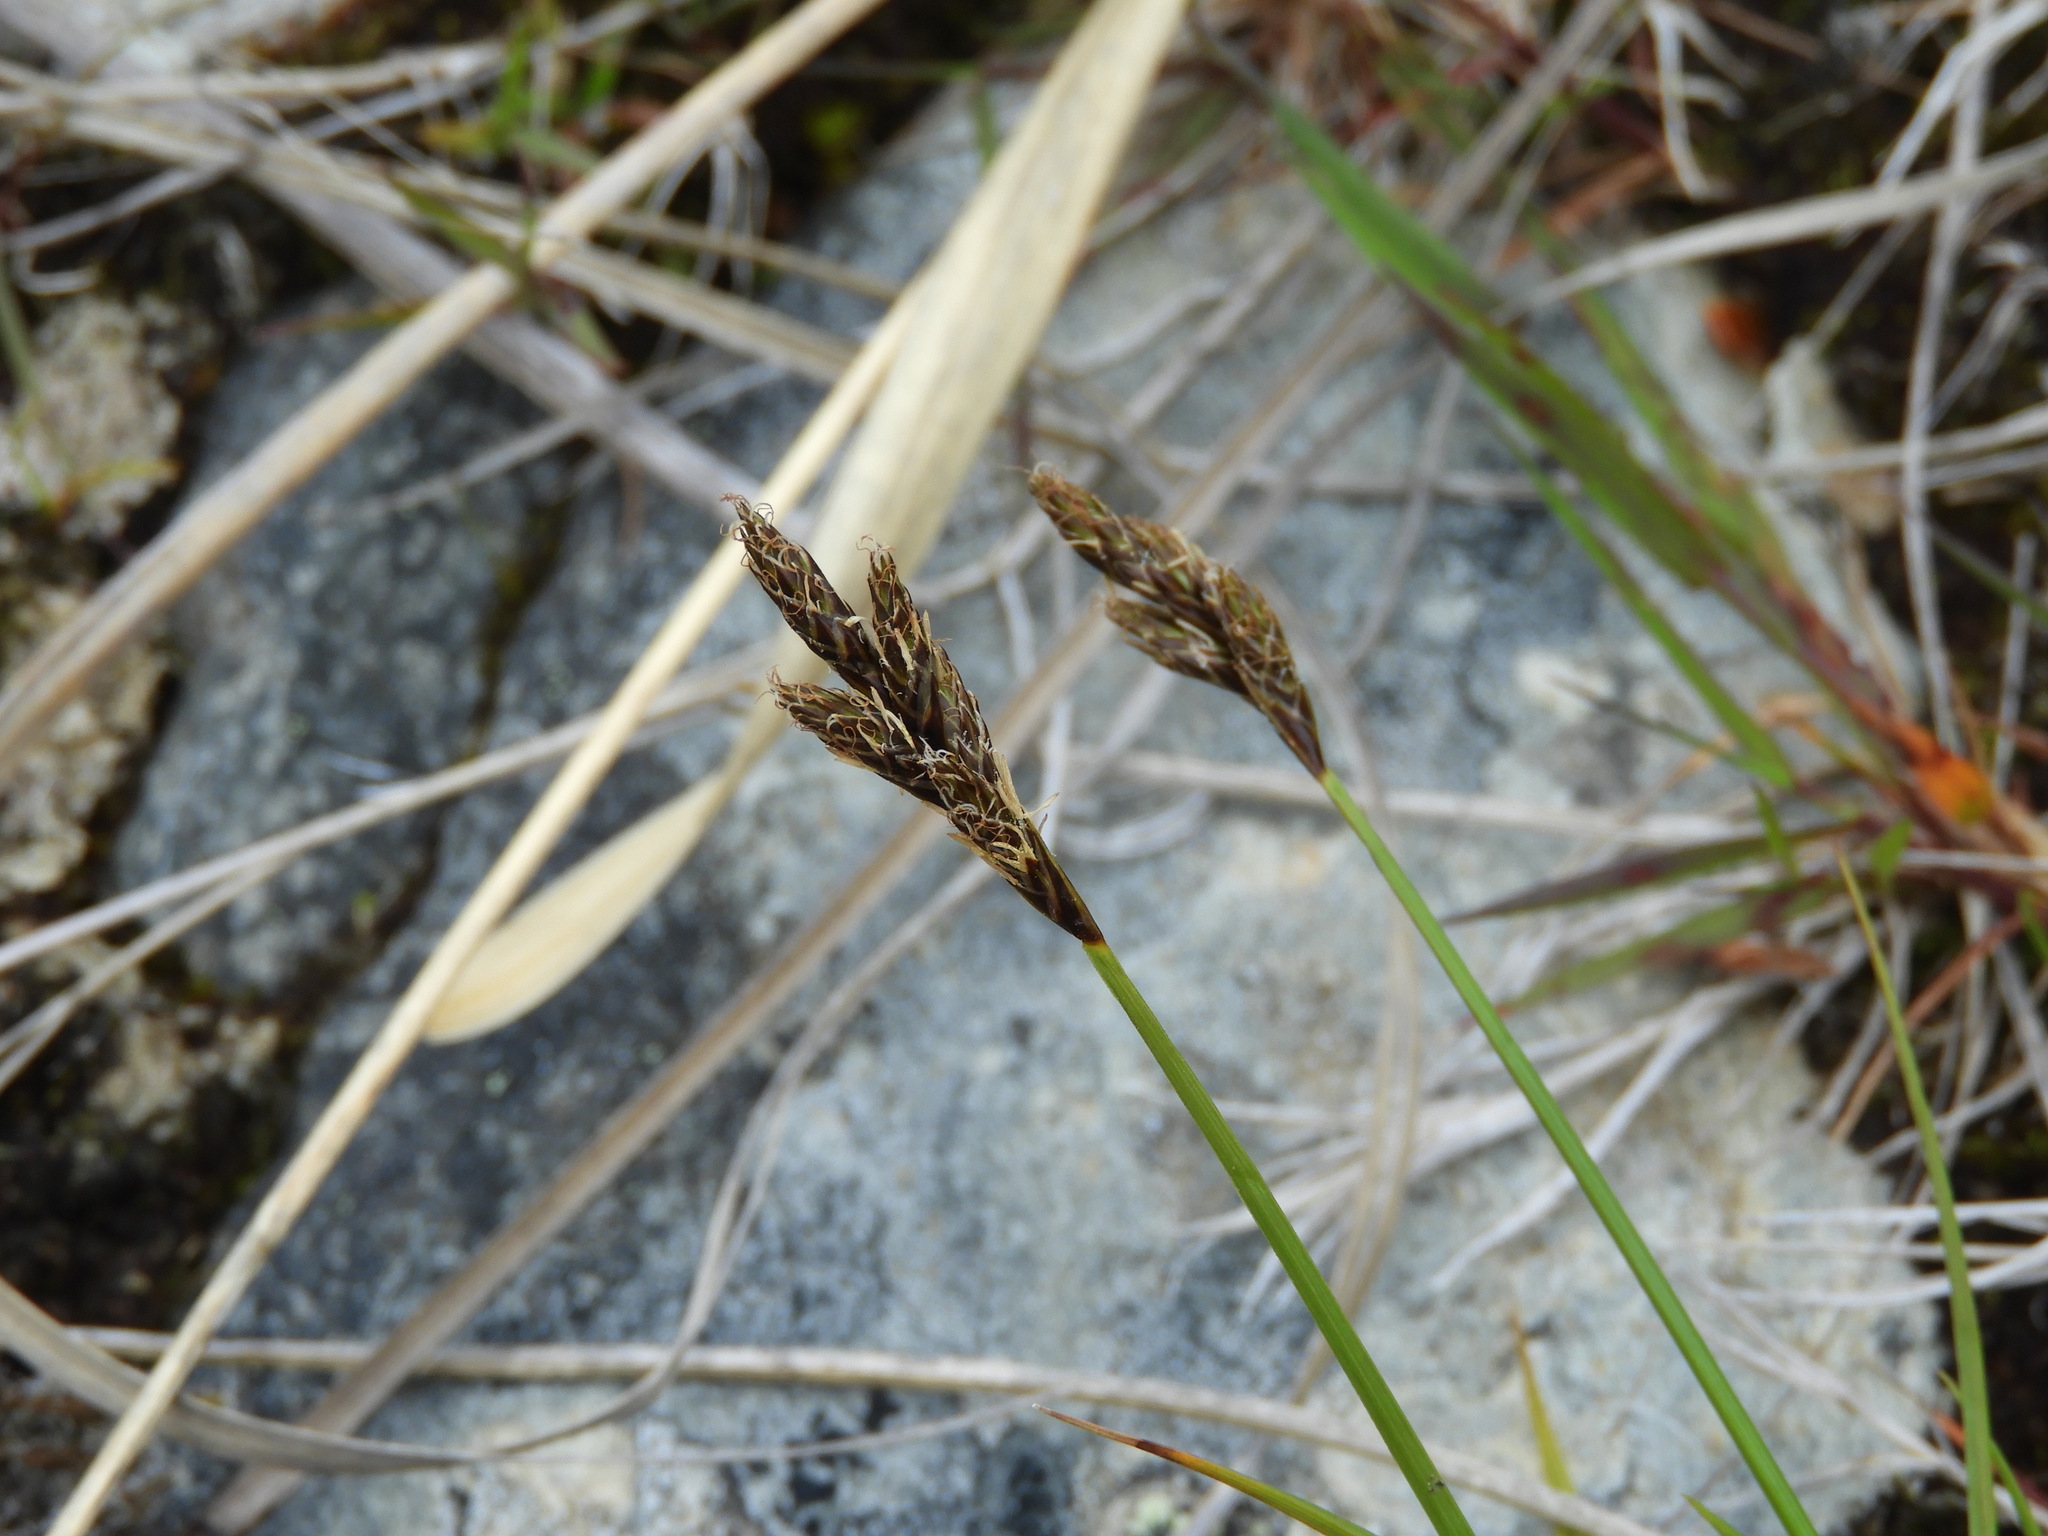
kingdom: Plantae
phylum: Tracheophyta
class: Liliopsida
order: Poales
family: Cyperaceae
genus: Carex
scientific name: Carex leporina
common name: Oval sedge
